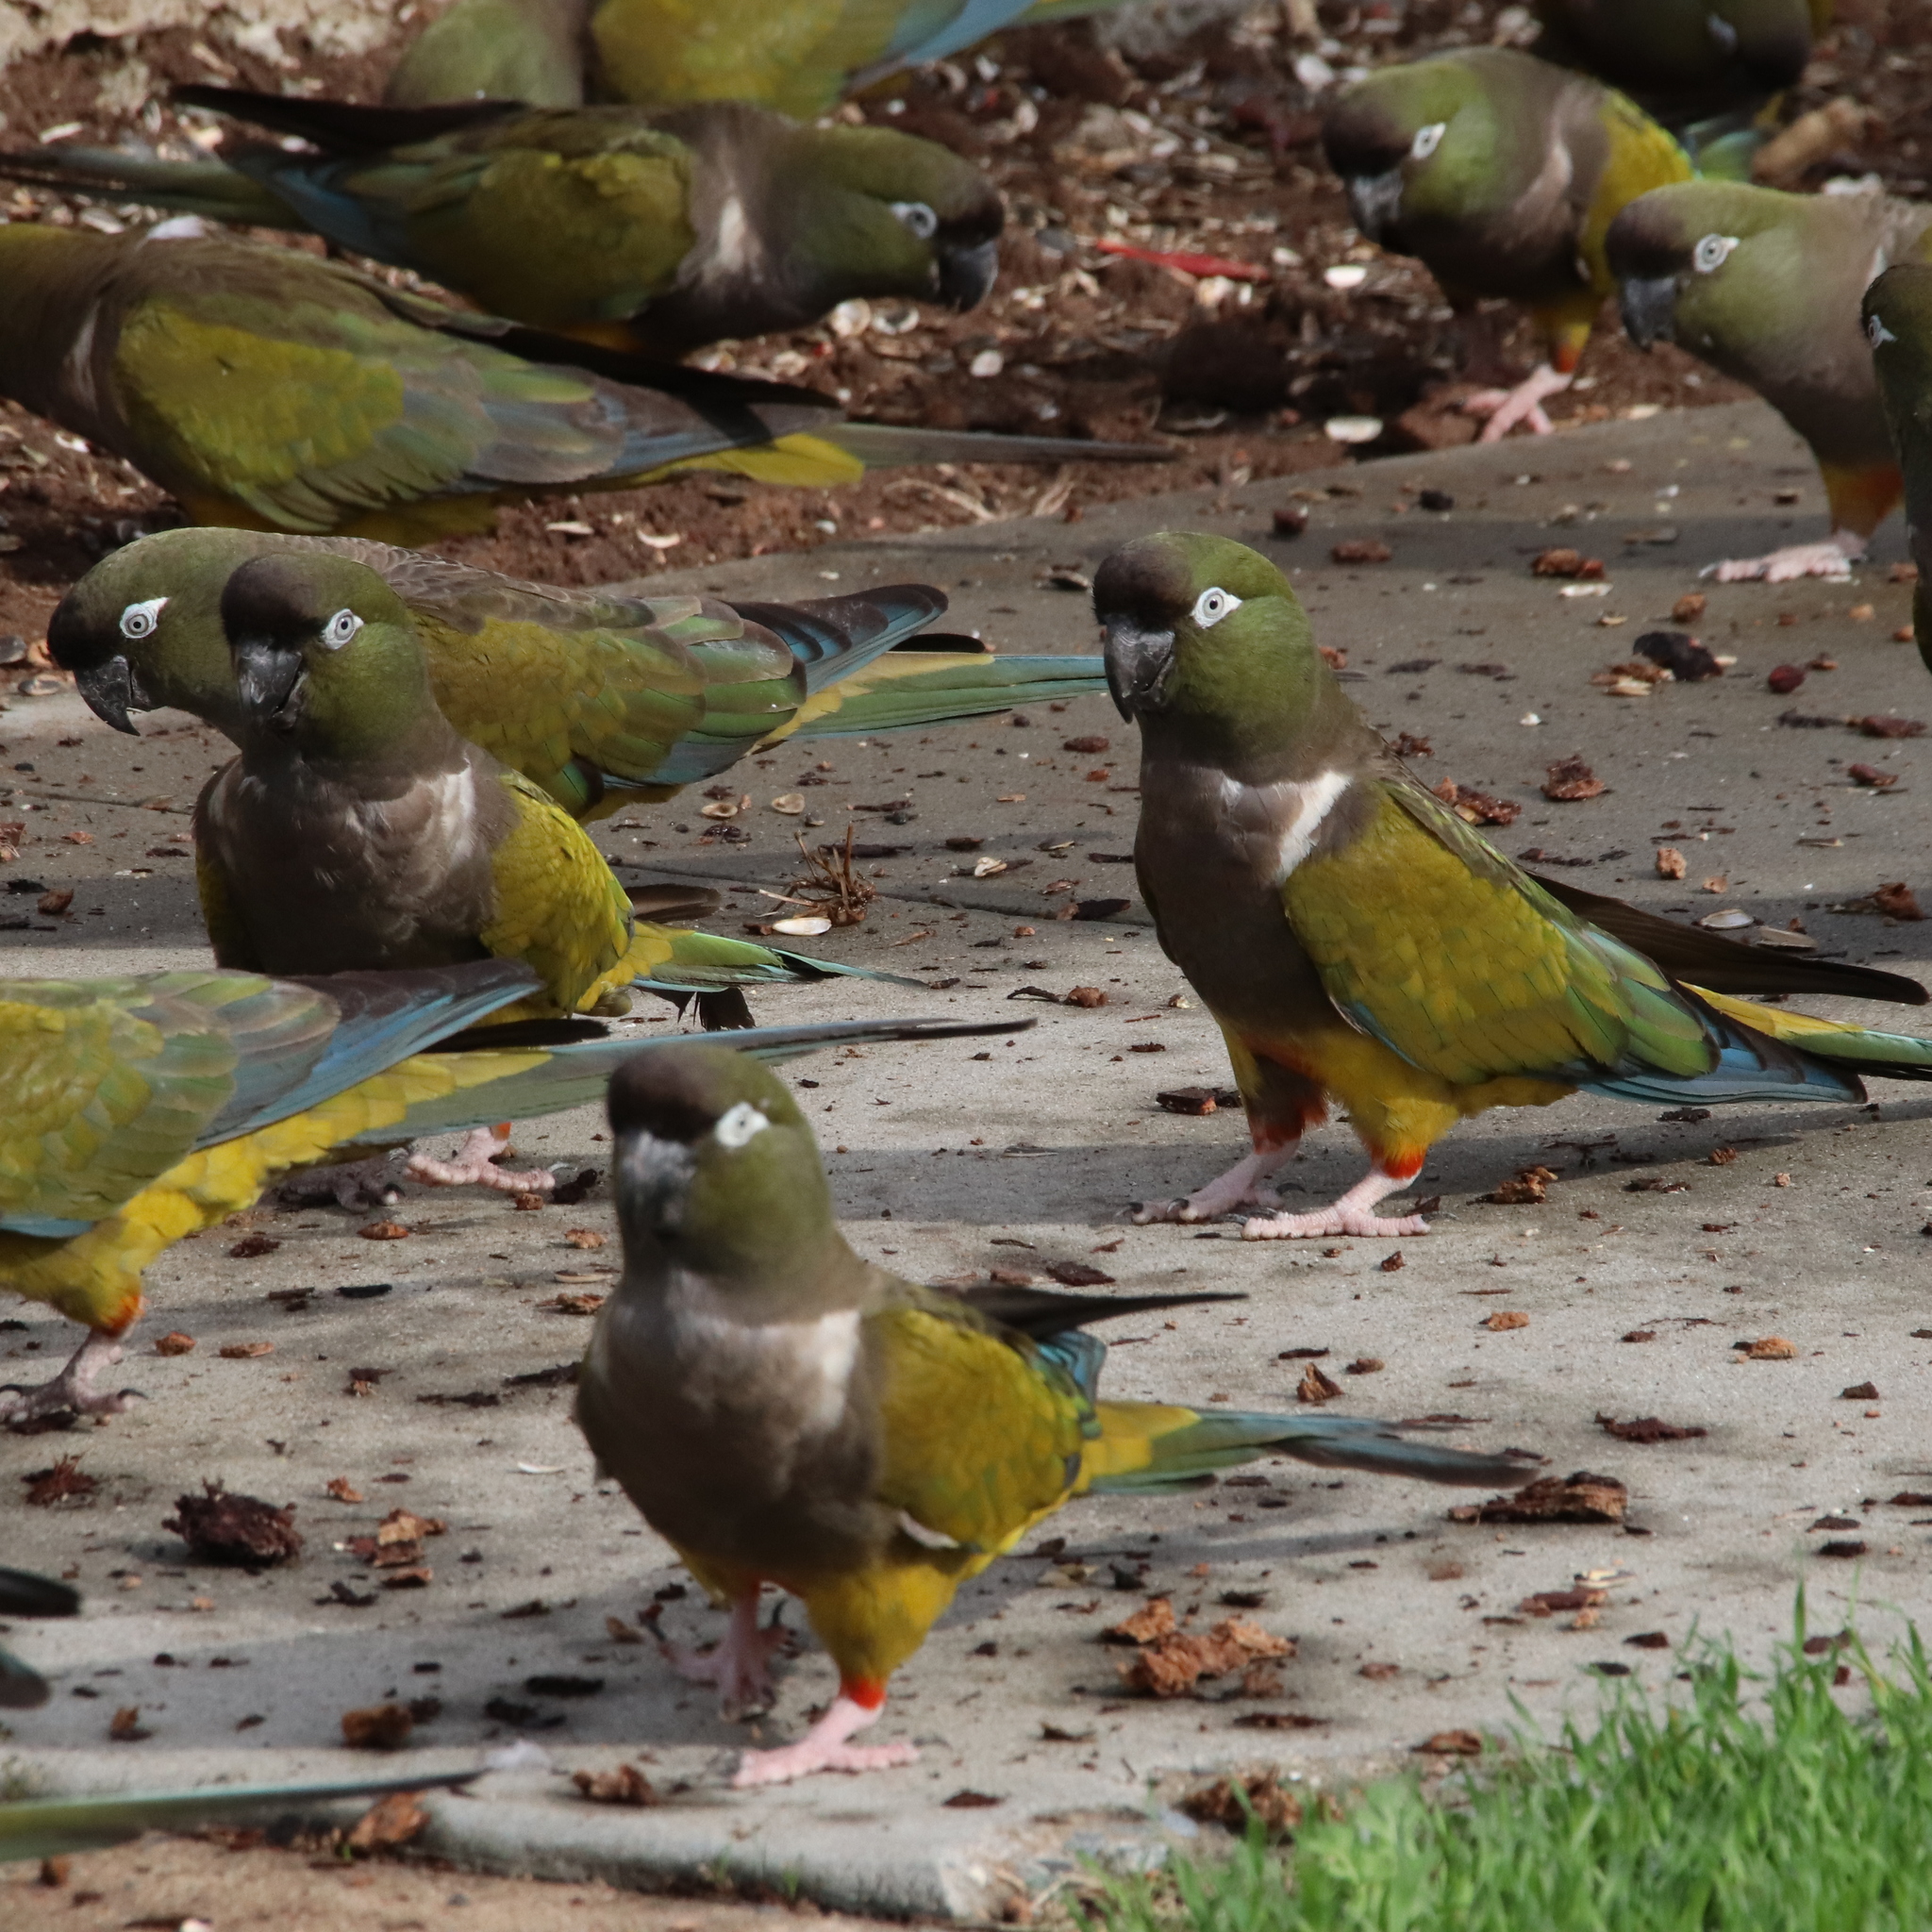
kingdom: Animalia
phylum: Chordata
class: Aves
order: Psittaciformes
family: Psittacidae
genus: Cyanoliseus
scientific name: Cyanoliseus patagonus
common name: Burrowing parrot
